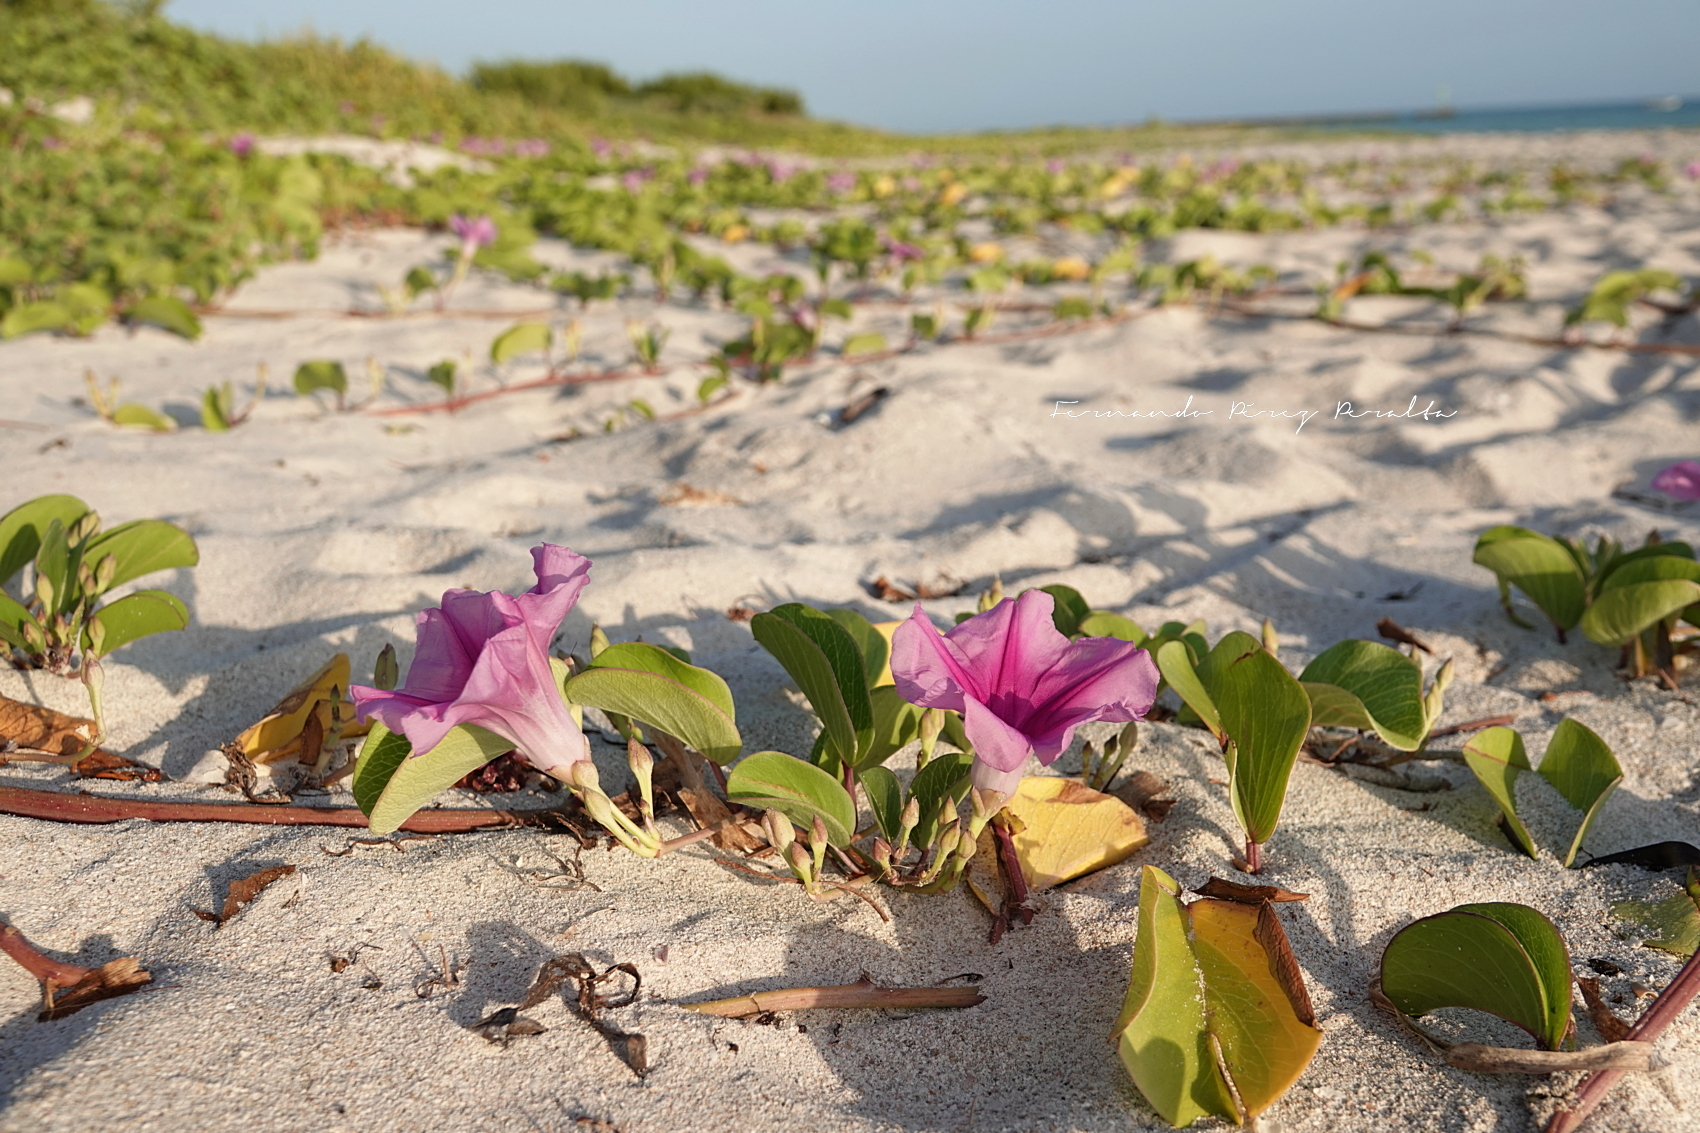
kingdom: Plantae
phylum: Tracheophyta
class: Magnoliopsida
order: Solanales
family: Convolvulaceae
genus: Ipomoea
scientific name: Ipomoea pes-caprae
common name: Beach morning glory
